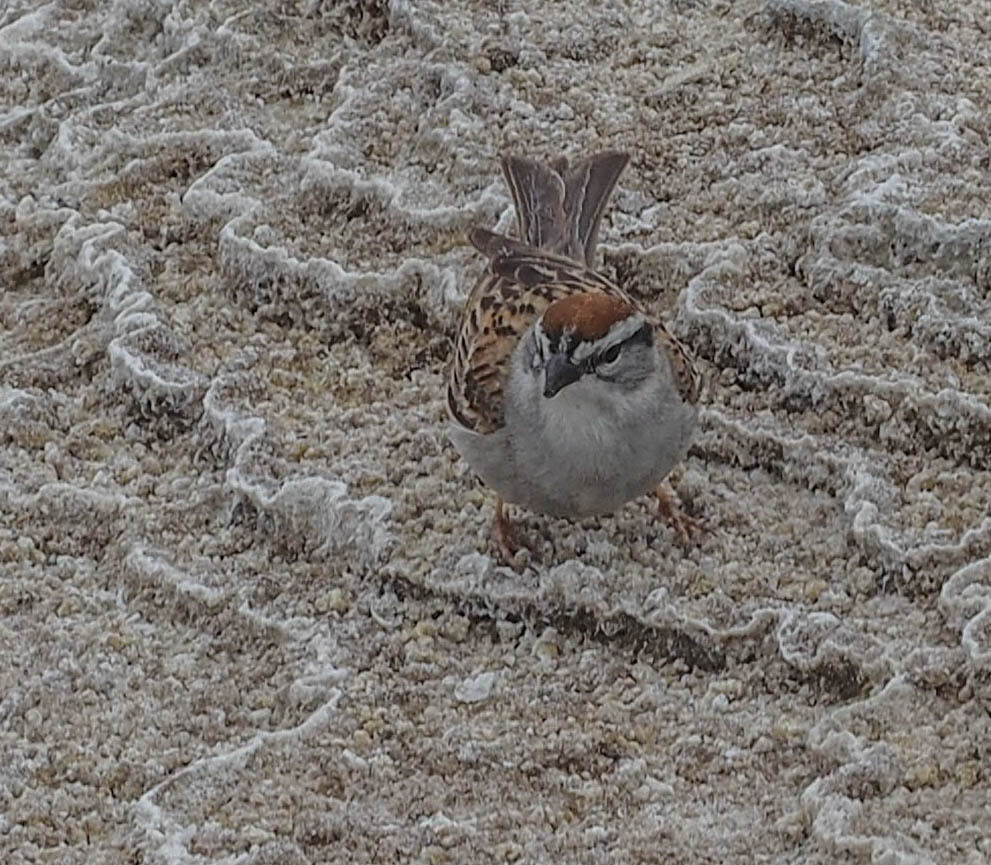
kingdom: Animalia
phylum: Chordata
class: Aves
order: Passeriformes
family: Passerellidae
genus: Spizella
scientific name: Spizella passerina
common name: Chipping sparrow
